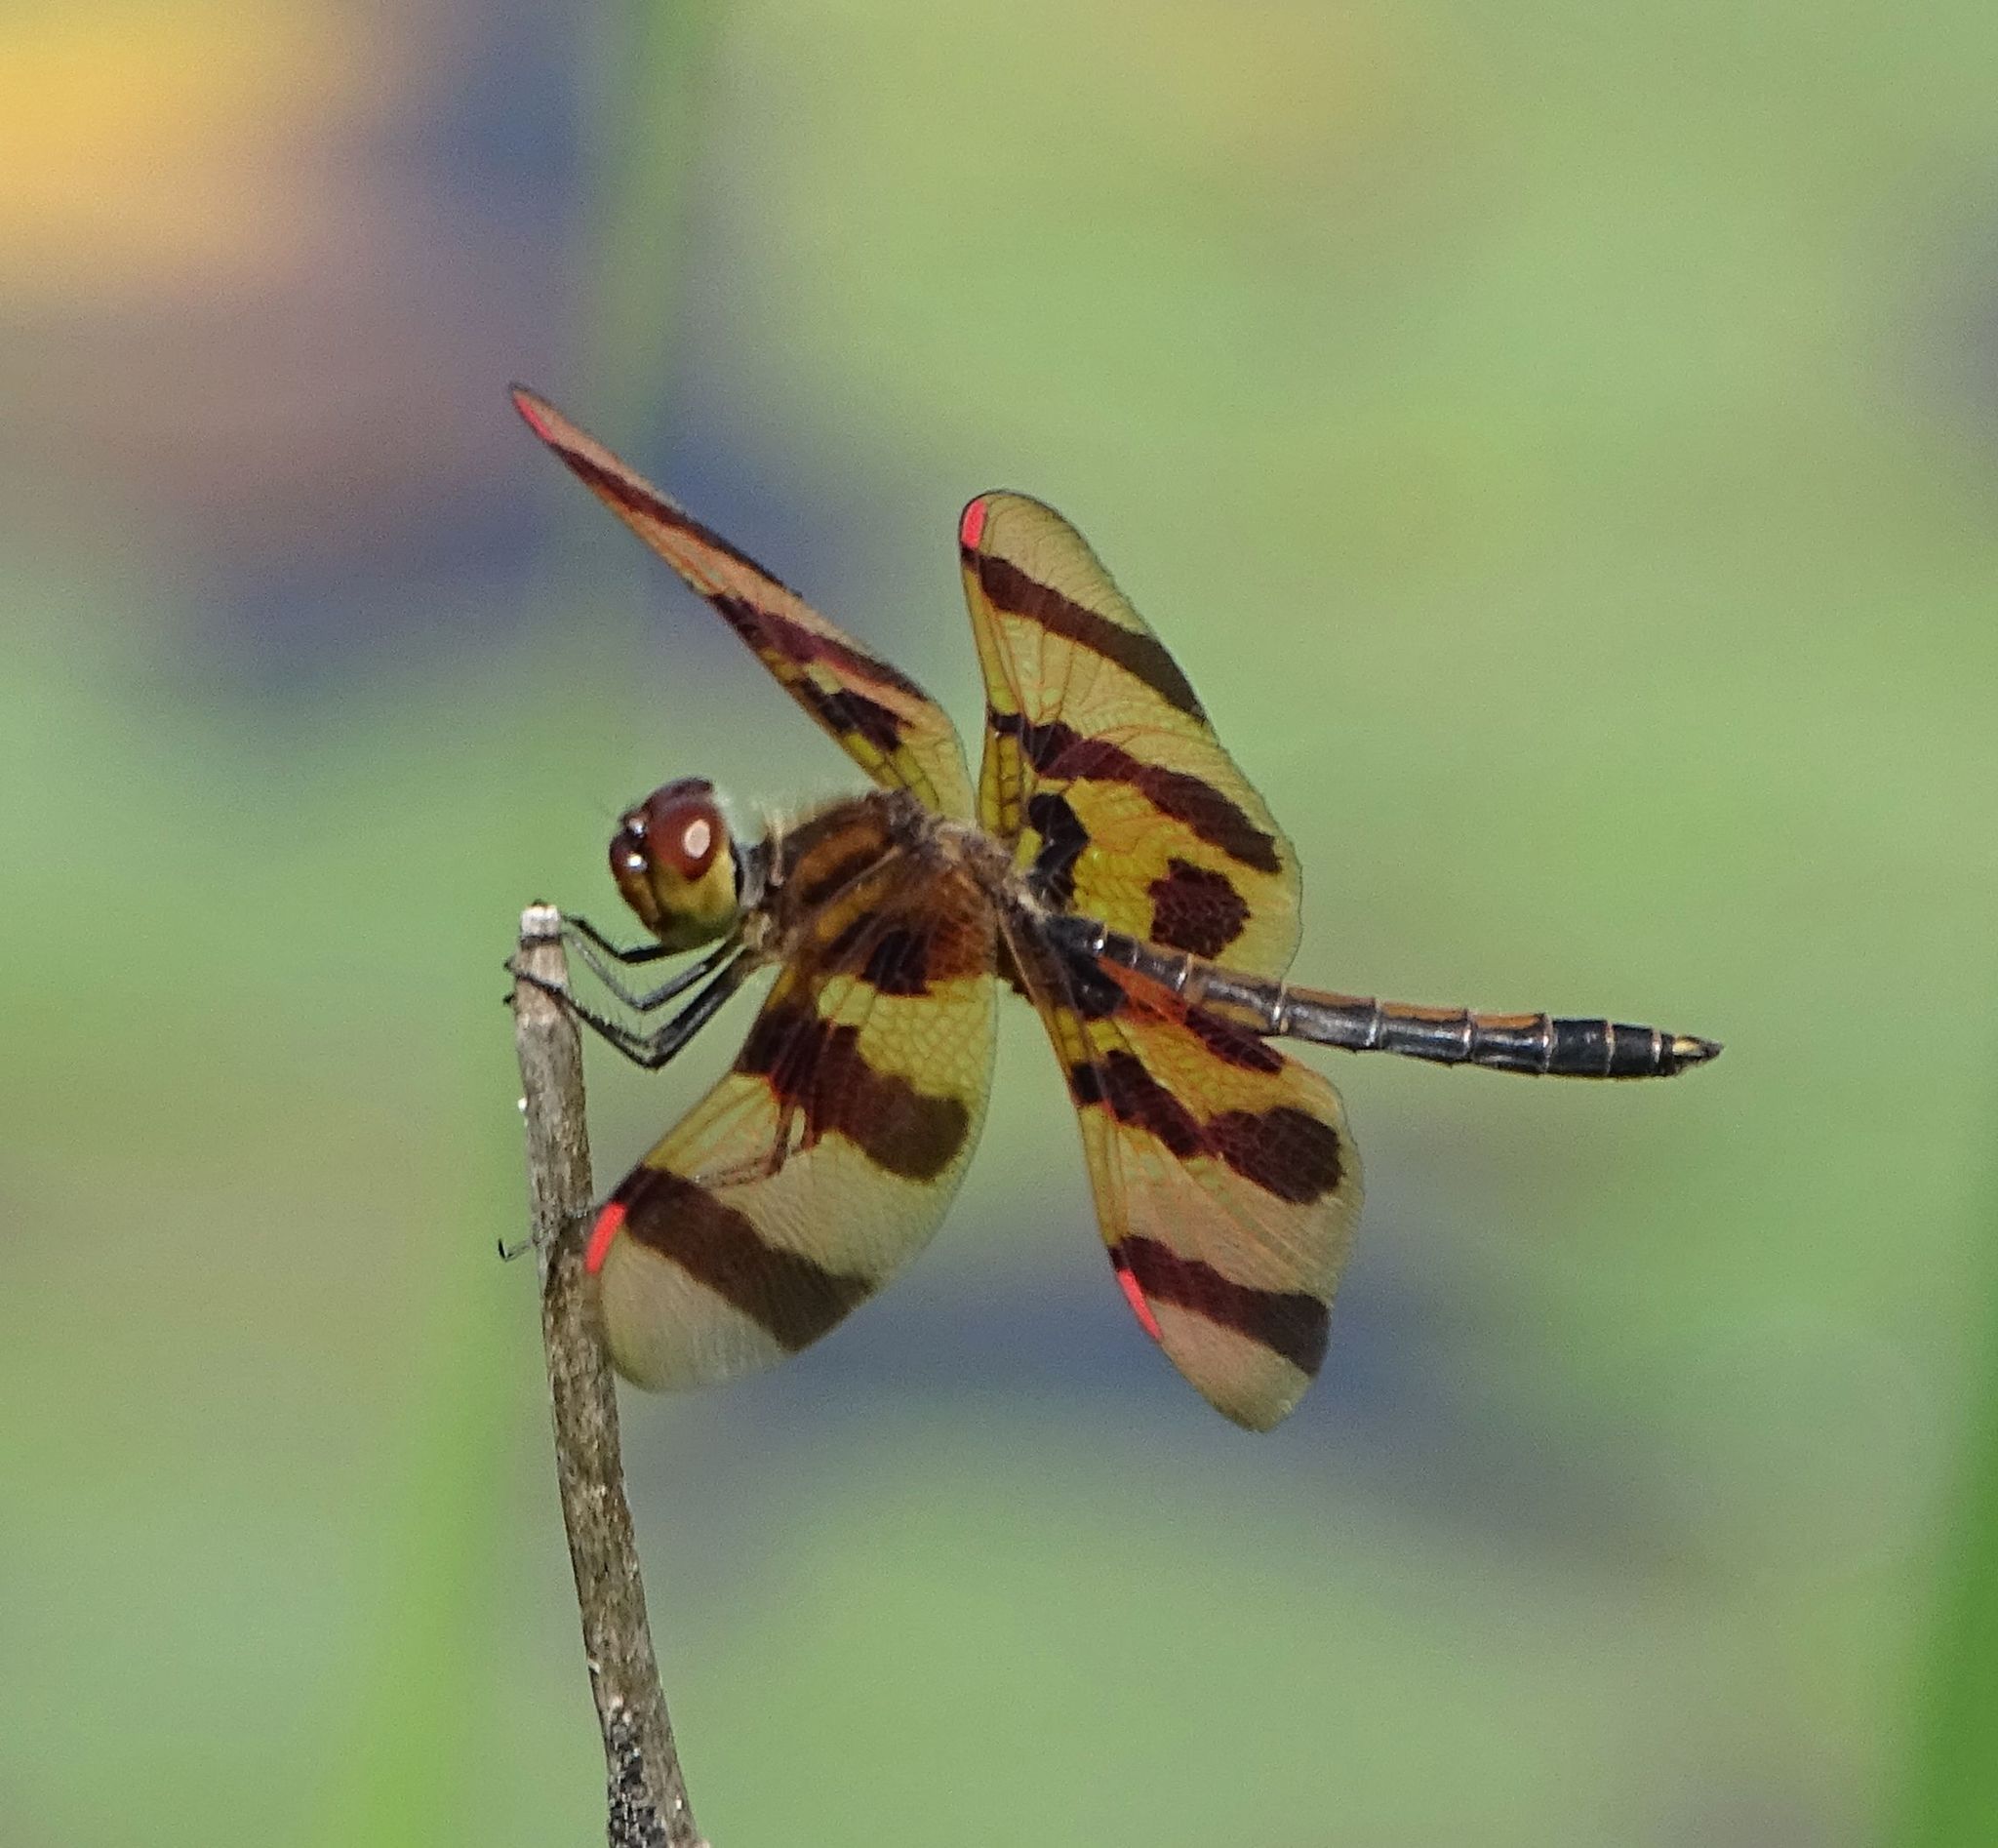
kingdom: Animalia
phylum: Arthropoda
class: Insecta
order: Odonata
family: Libellulidae
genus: Celithemis
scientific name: Celithemis eponina
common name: Halloween pennant
